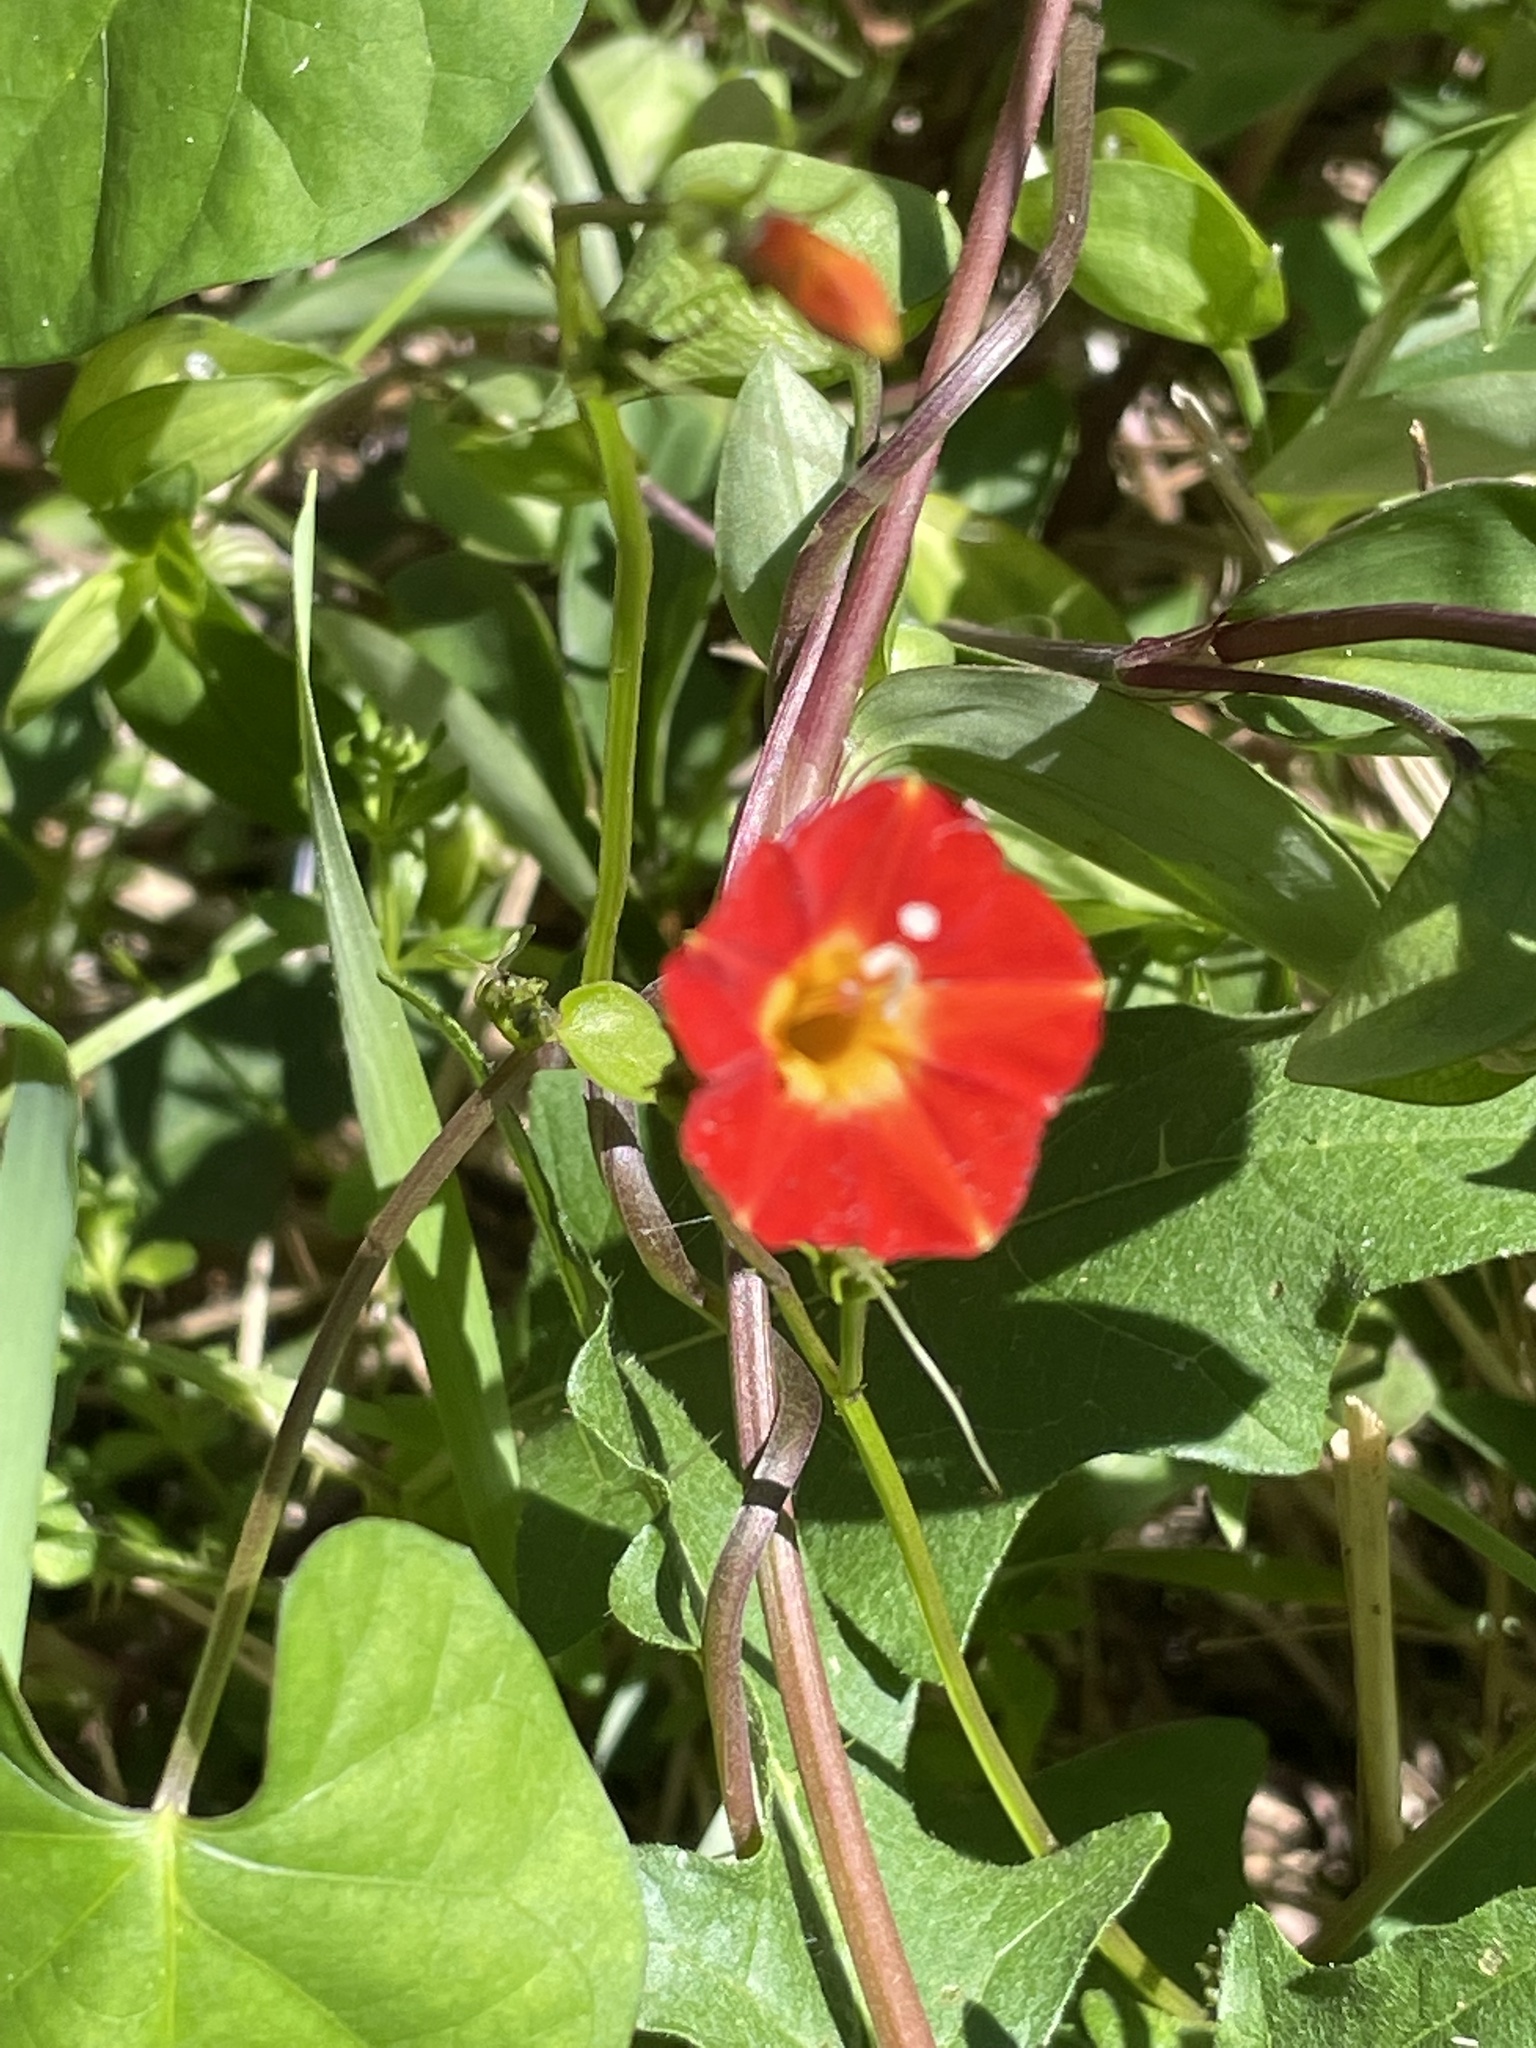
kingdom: Plantae
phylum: Tracheophyta
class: Magnoliopsida
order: Solanales
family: Convolvulaceae
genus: Ipomoea
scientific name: Ipomoea coccinea
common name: Red morning-glory
